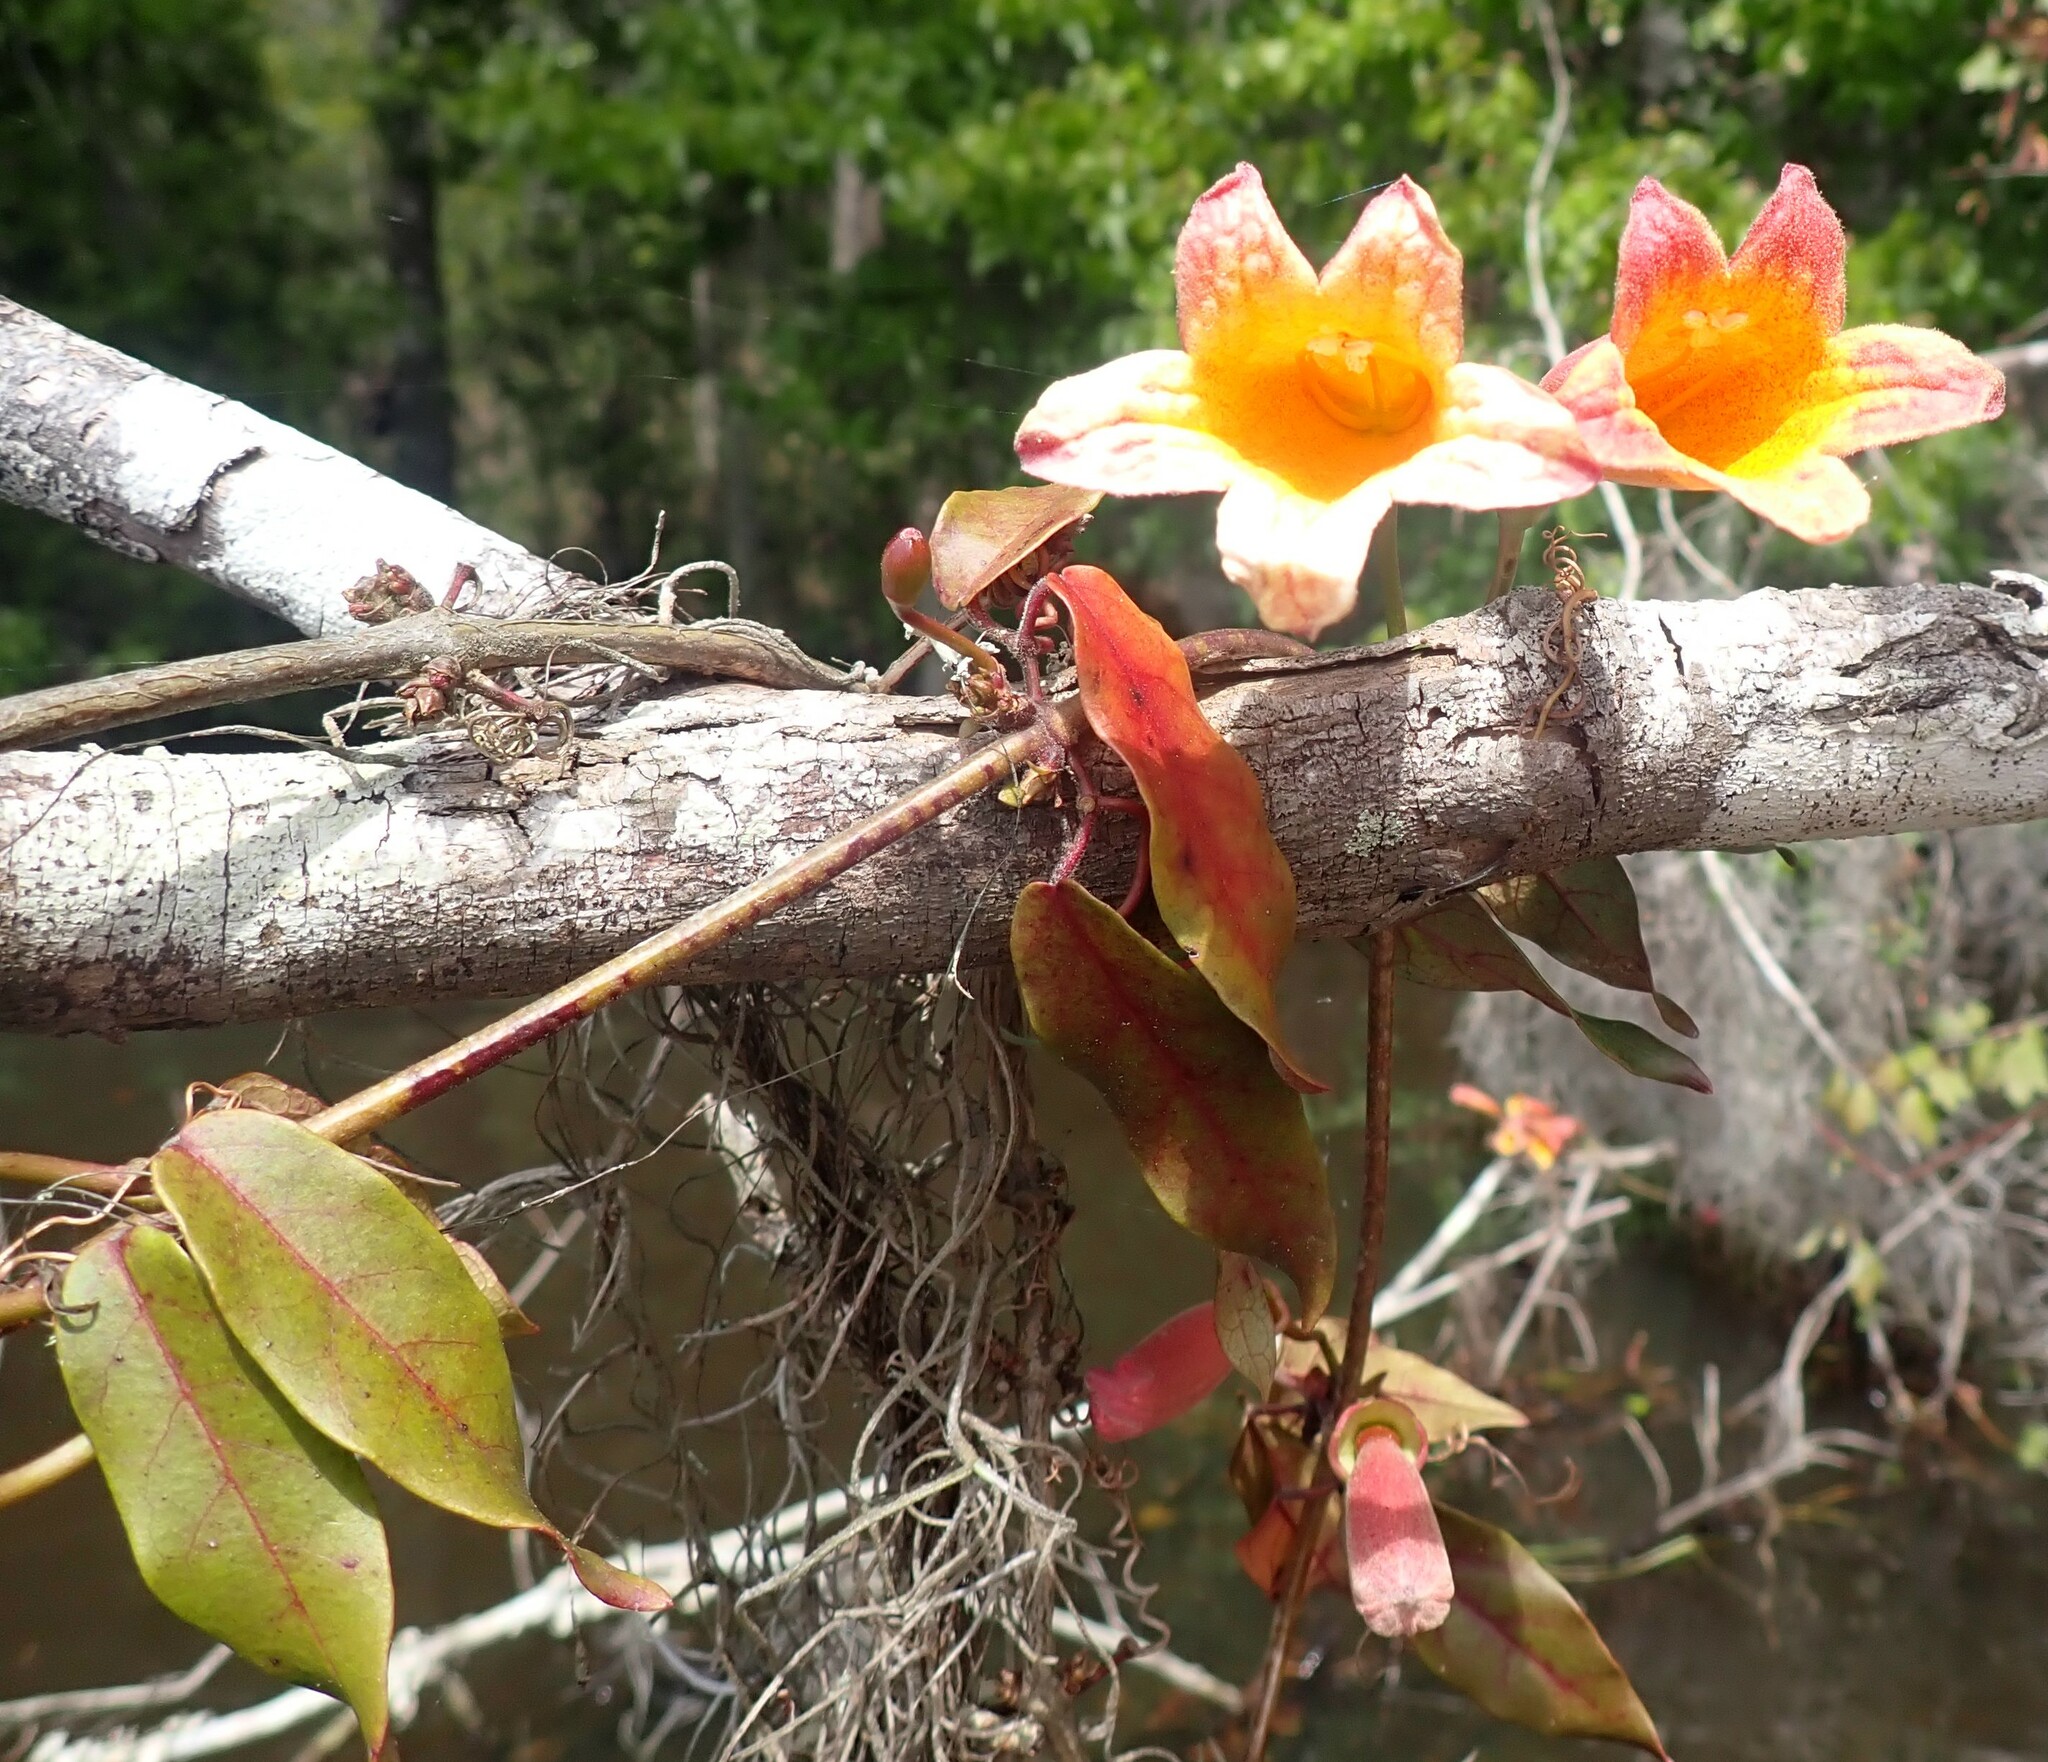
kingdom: Plantae
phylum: Tracheophyta
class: Magnoliopsida
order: Lamiales
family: Bignoniaceae
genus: Bignonia
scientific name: Bignonia capreolata
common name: Crossvine
